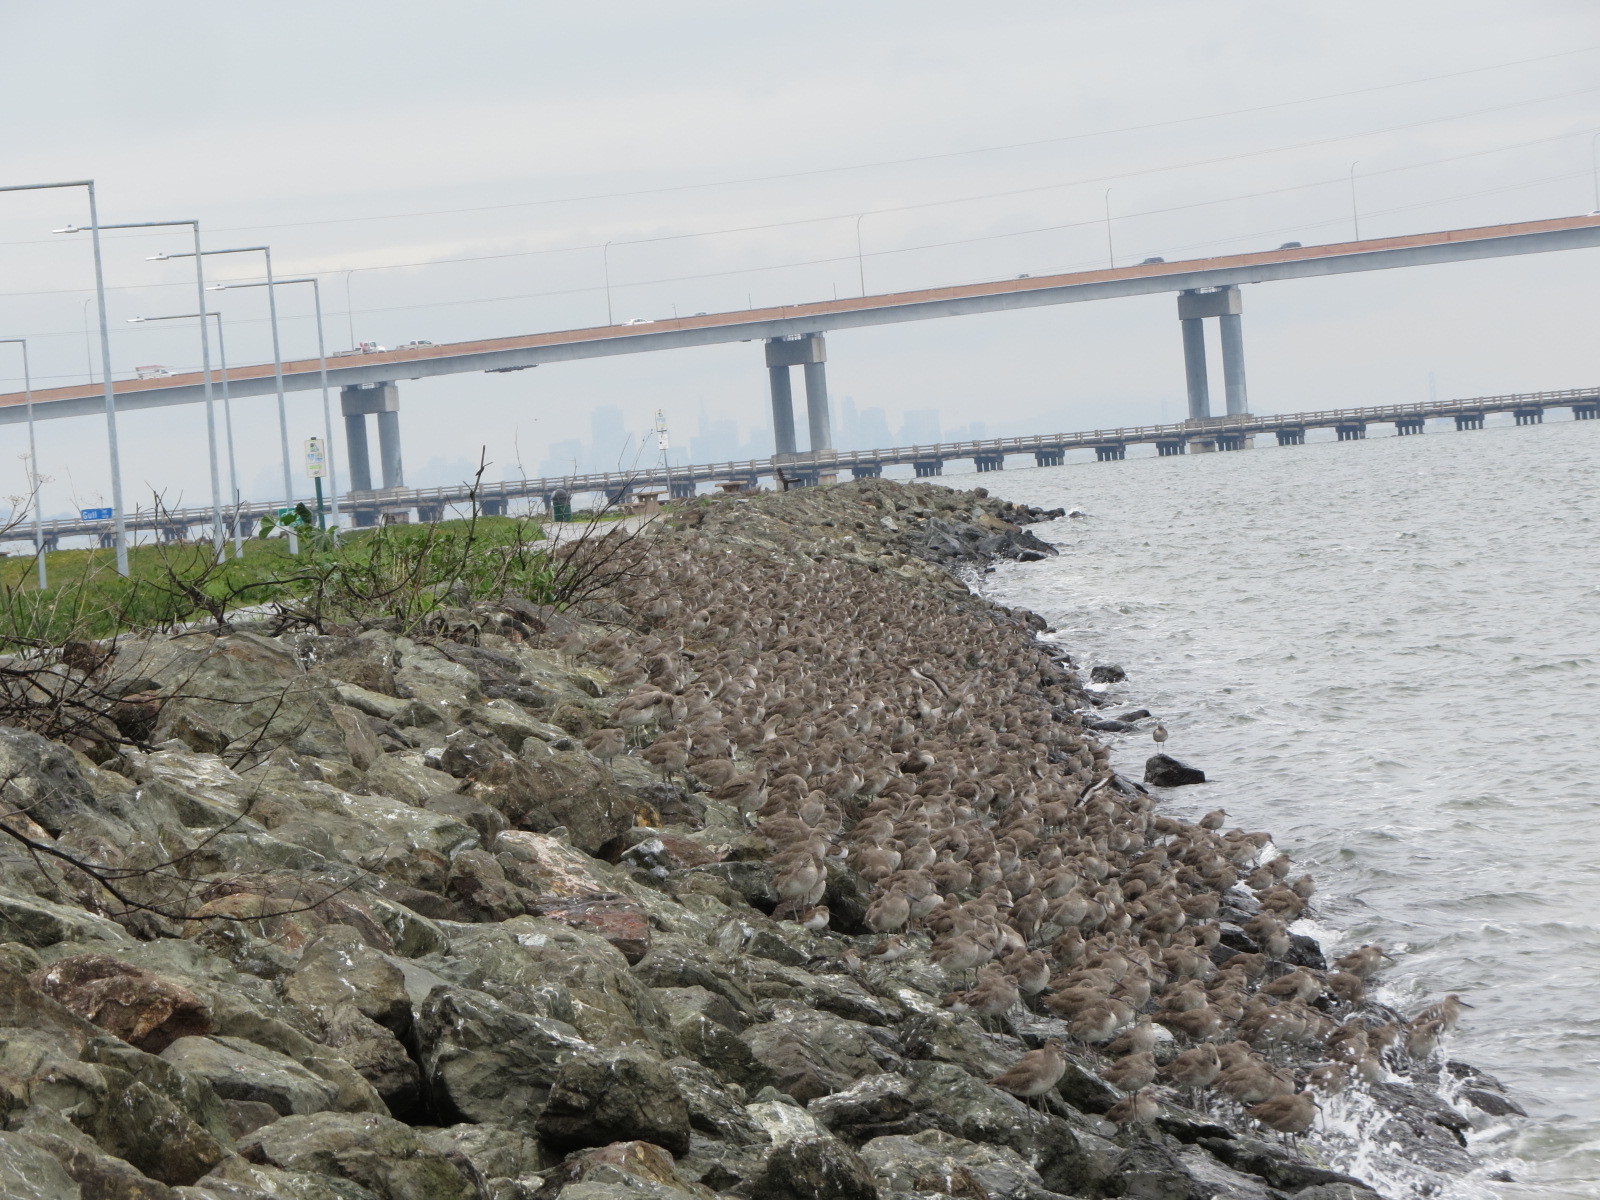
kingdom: Animalia
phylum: Chordata
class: Aves
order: Charadriiformes
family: Scolopacidae
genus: Tringa
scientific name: Tringa semipalmata
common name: Willet
